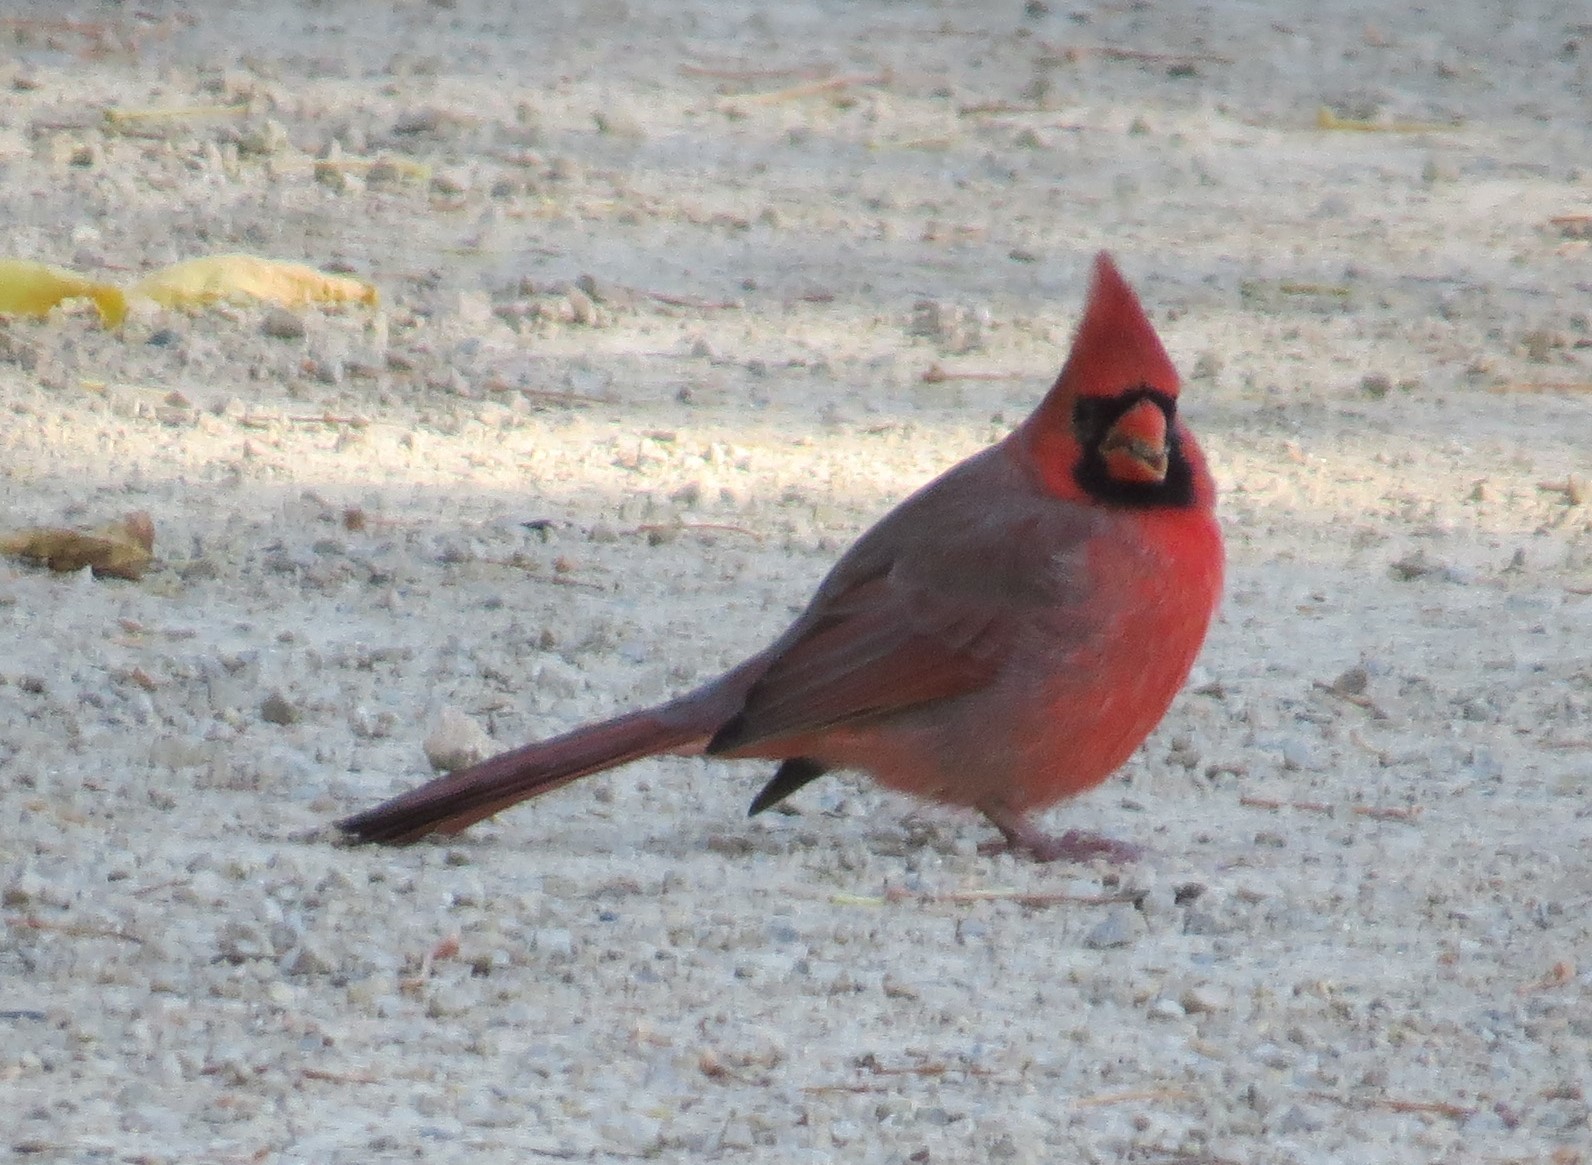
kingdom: Animalia
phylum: Chordata
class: Aves
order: Passeriformes
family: Cardinalidae
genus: Cardinalis
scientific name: Cardinalis cardinalis
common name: Northern cardinal
